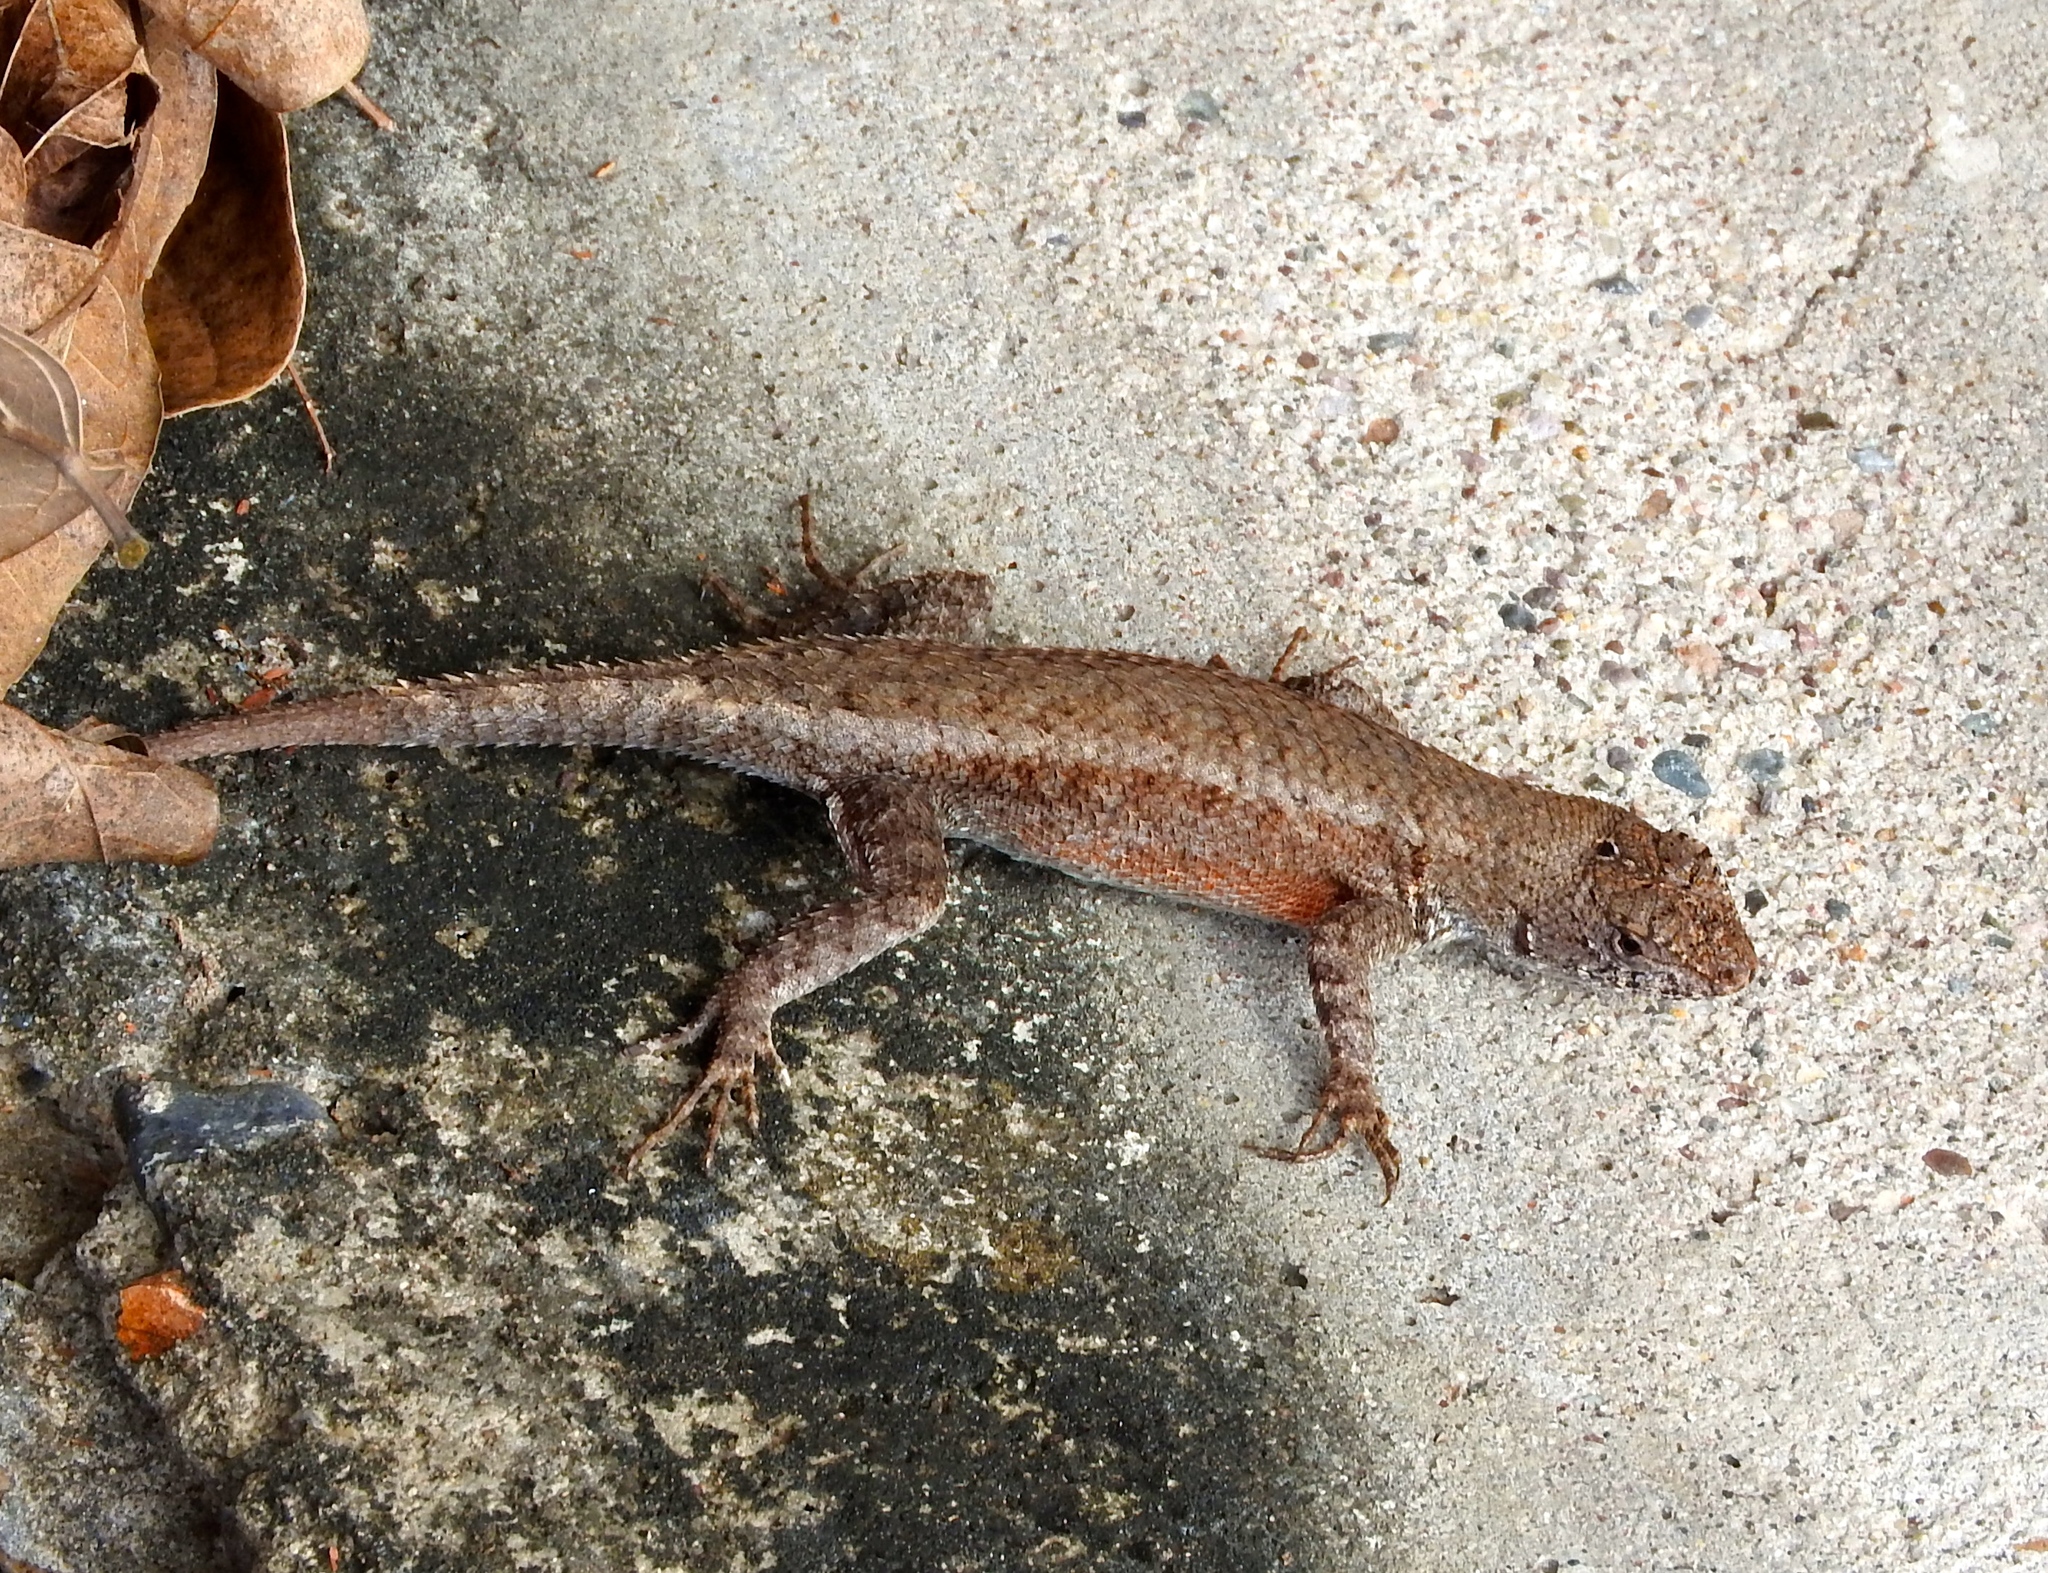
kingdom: Animalia
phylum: Chordata
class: Squamata
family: Phrynosomatidae
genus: Sceloporus
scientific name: Sceloporus nelsoni
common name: Nelson's spiny lizard
